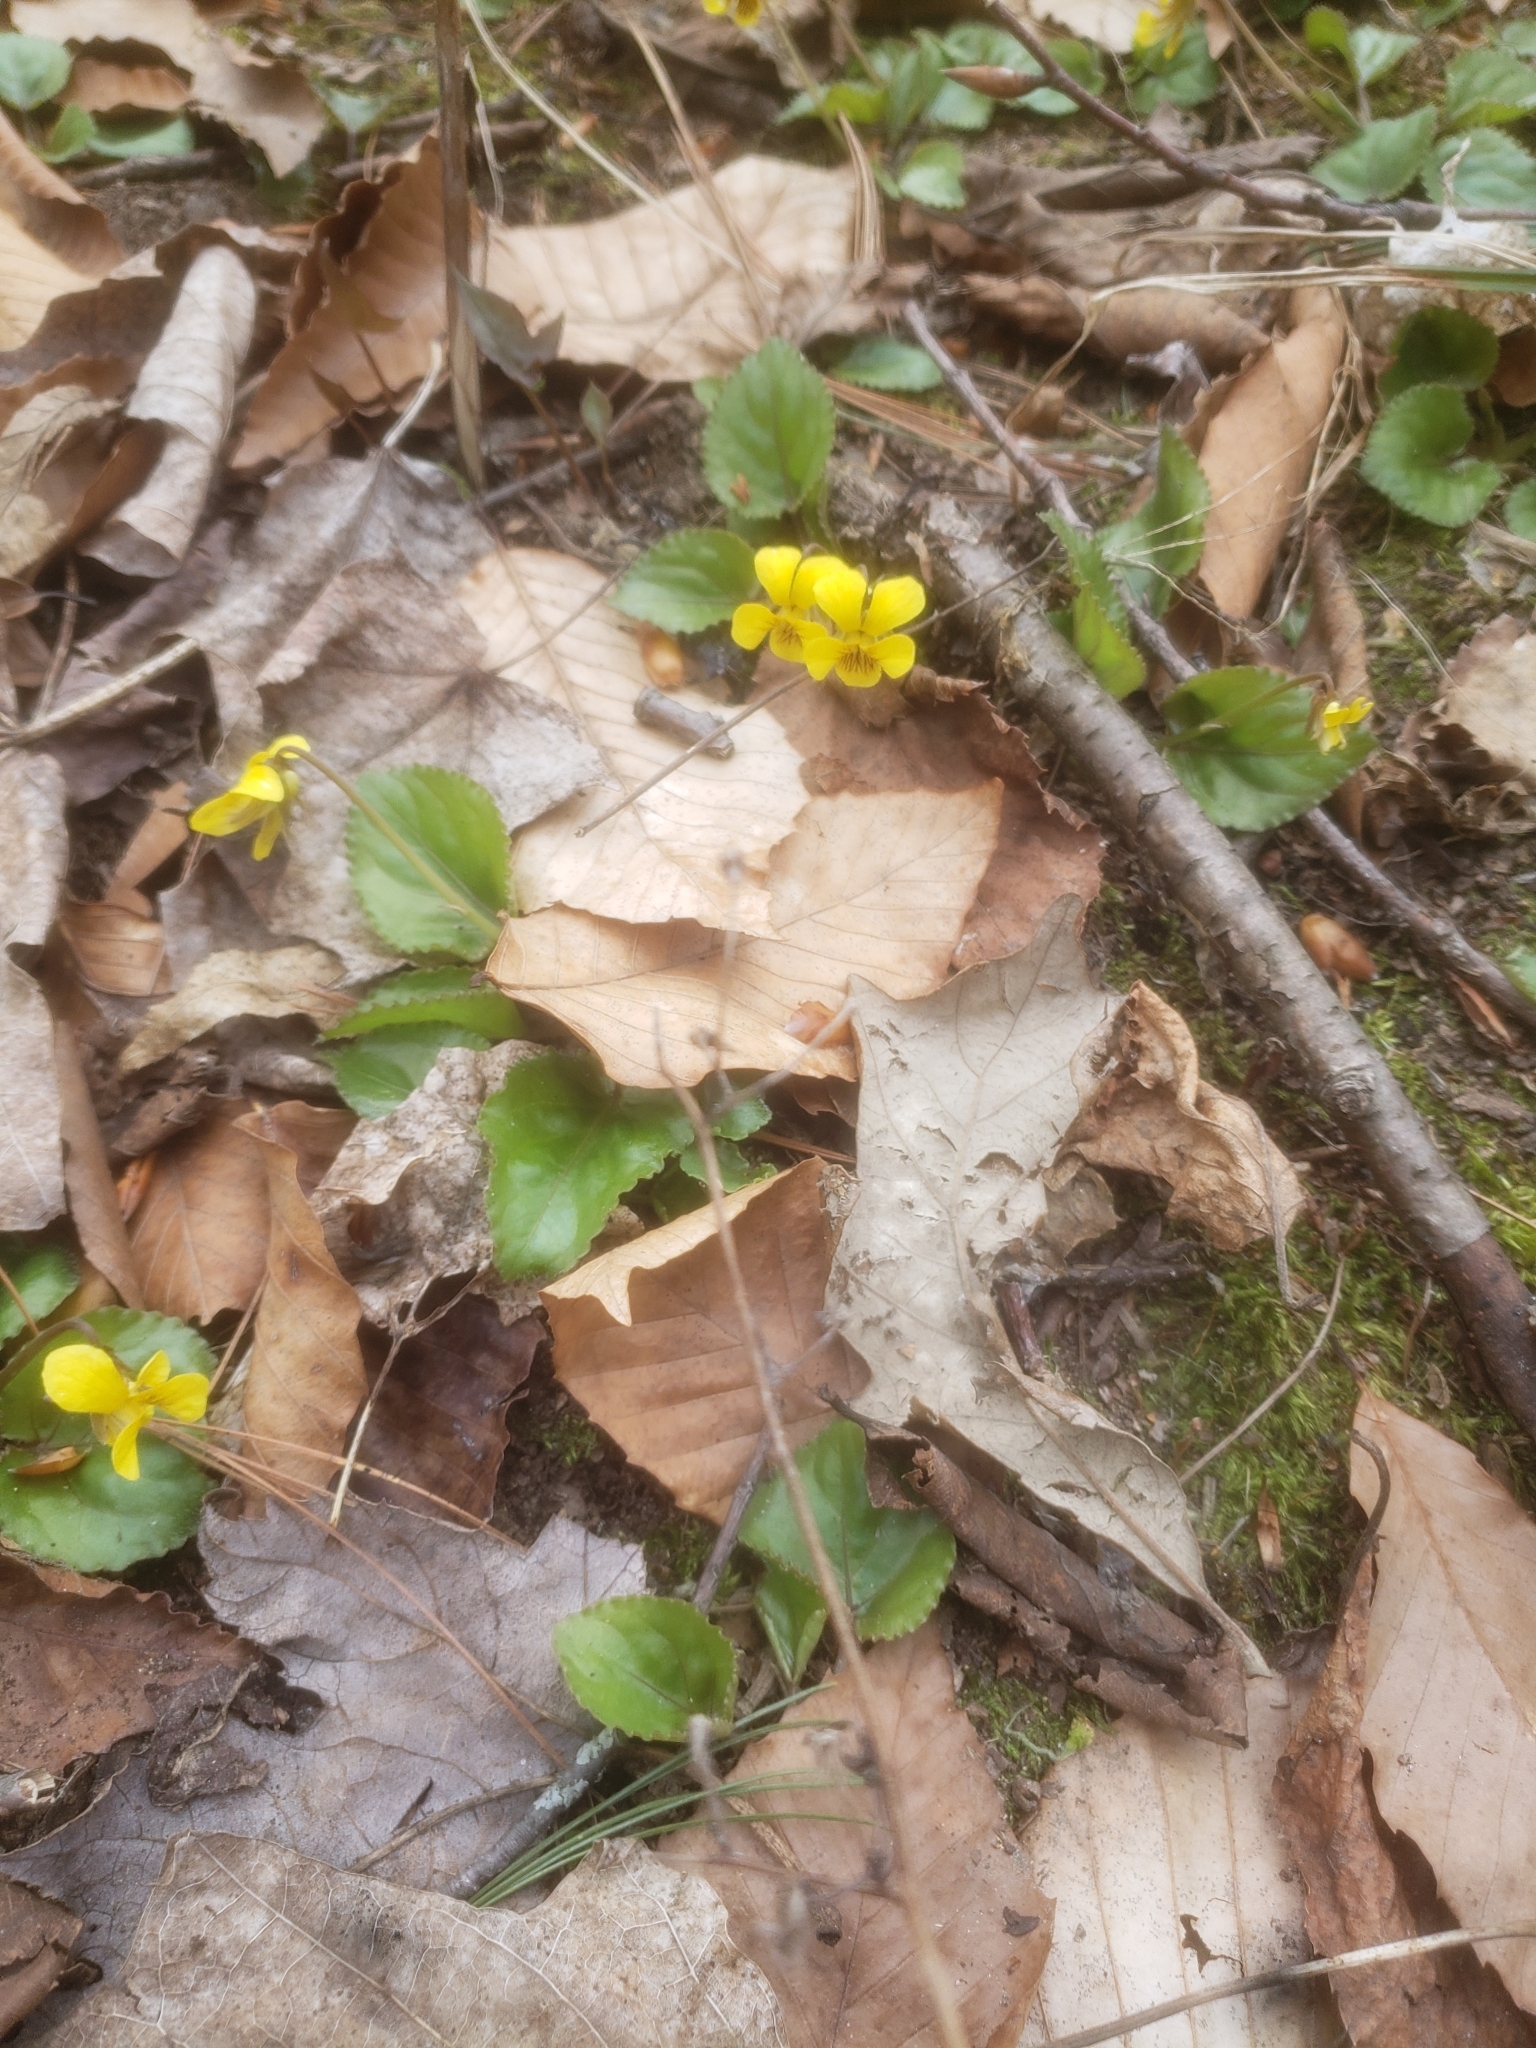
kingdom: Plantae
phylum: Tracheophyta
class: Magnoliopsida
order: Malpighiales
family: Violaceae
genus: Viola
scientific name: Viola rotundifolia
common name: Early yellow violet
